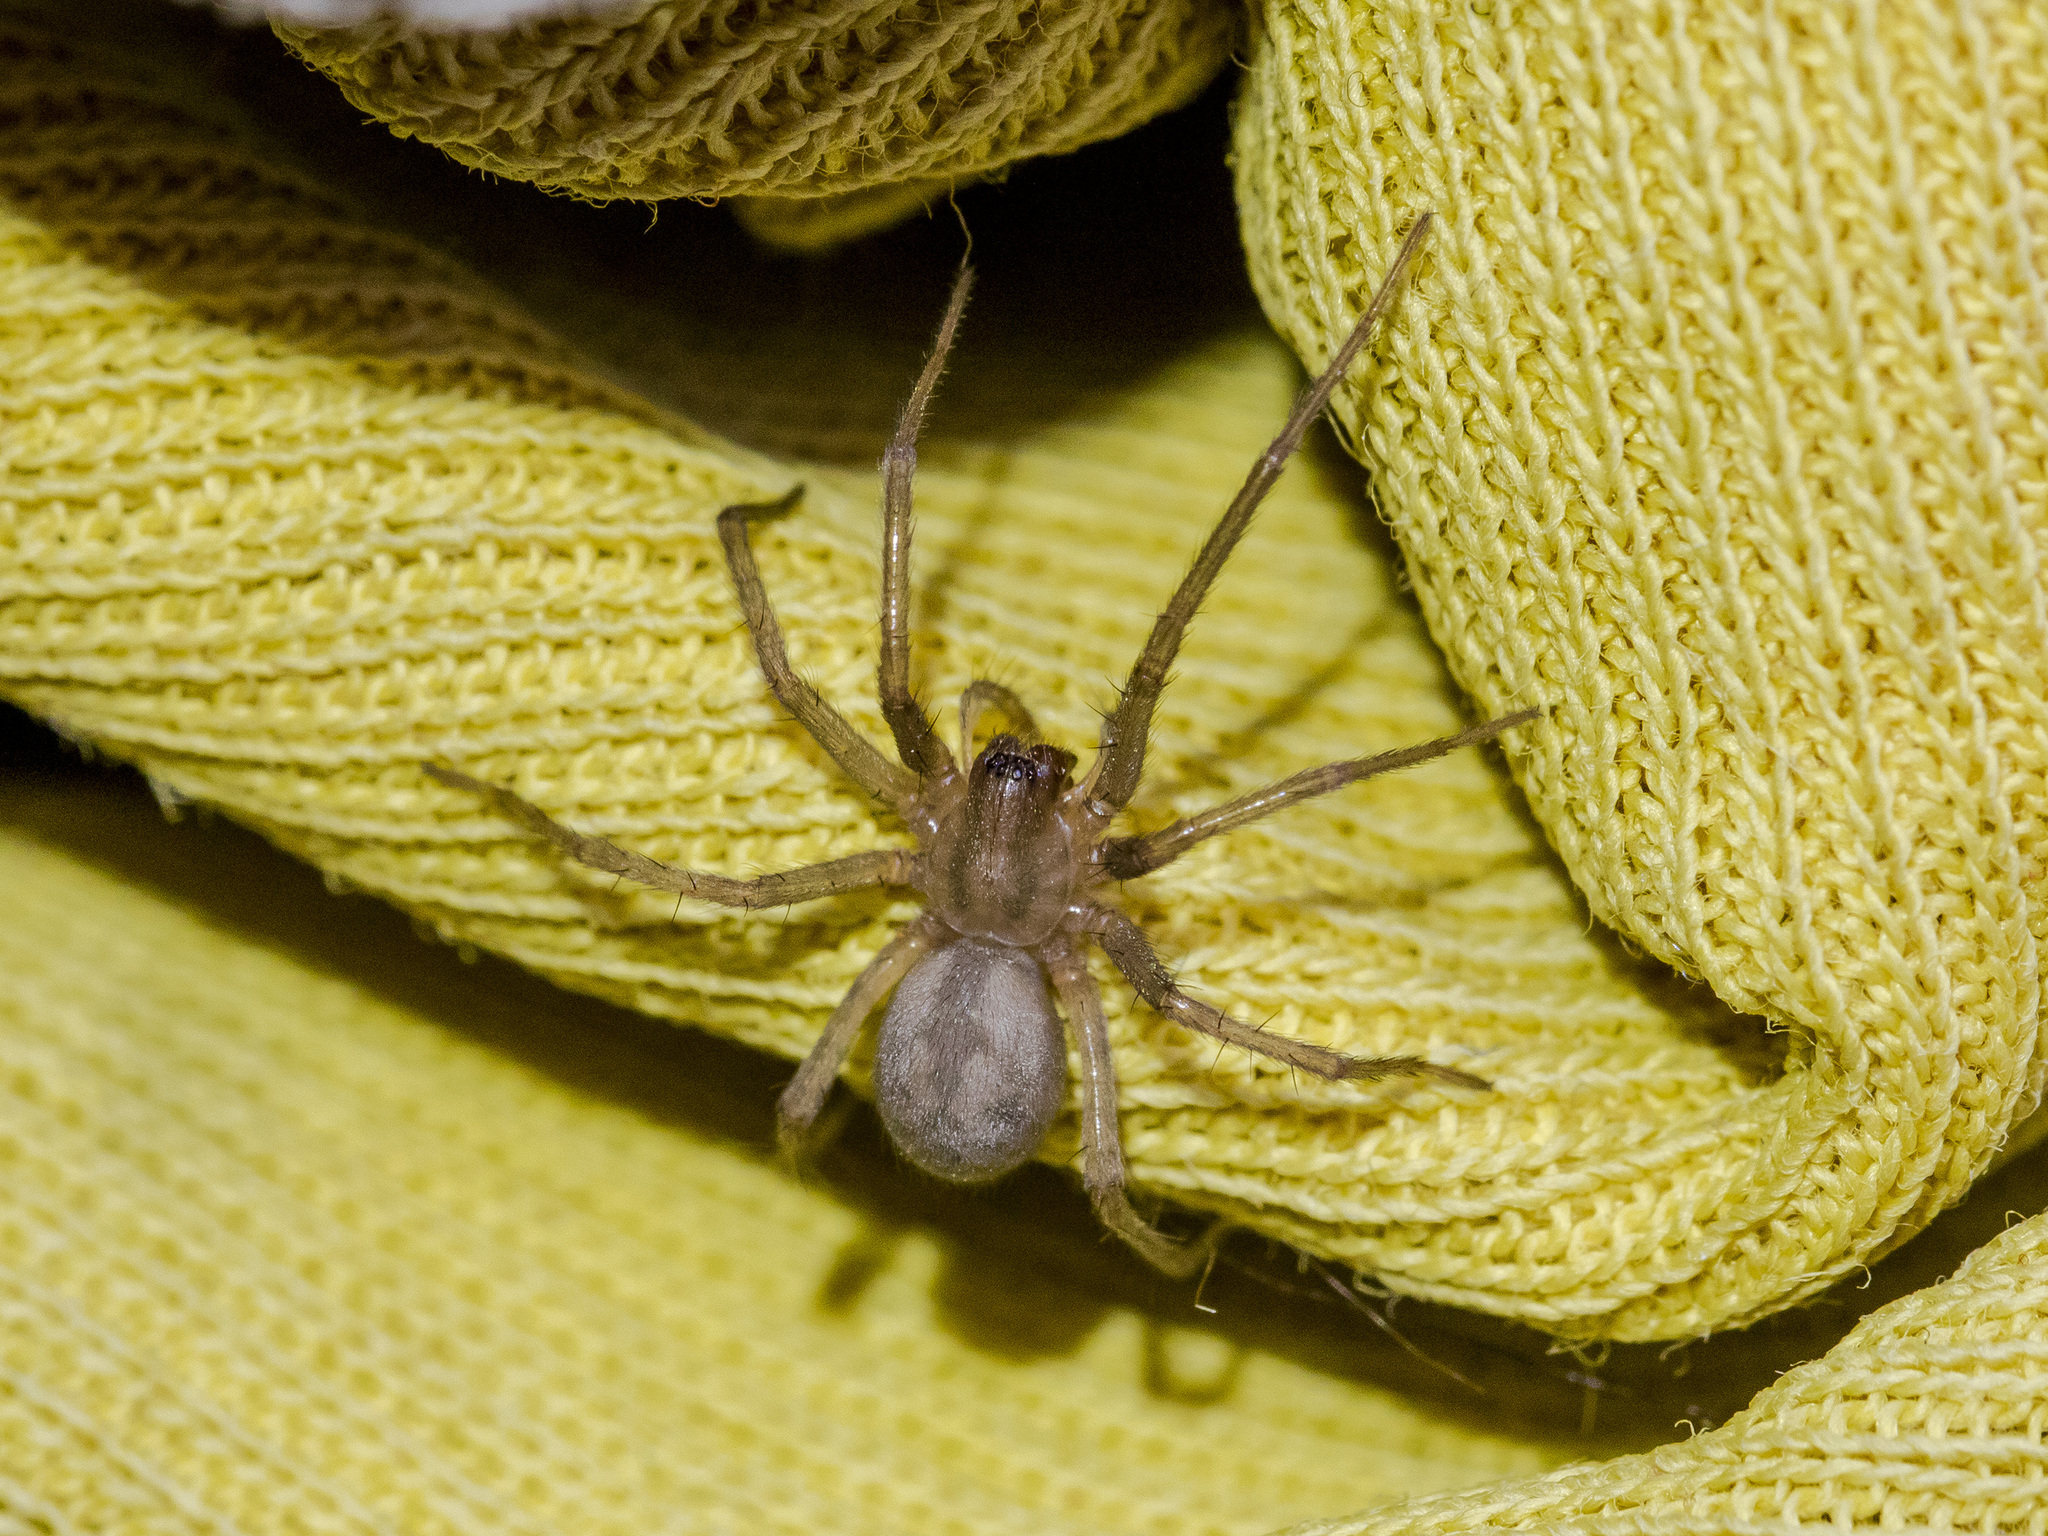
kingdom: Animalia
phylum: Arthropoda
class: Arachnida
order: Araneae
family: Agelenidae
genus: Tegenaria
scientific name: Tegenaria domestica
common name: Barn funnel weaver
